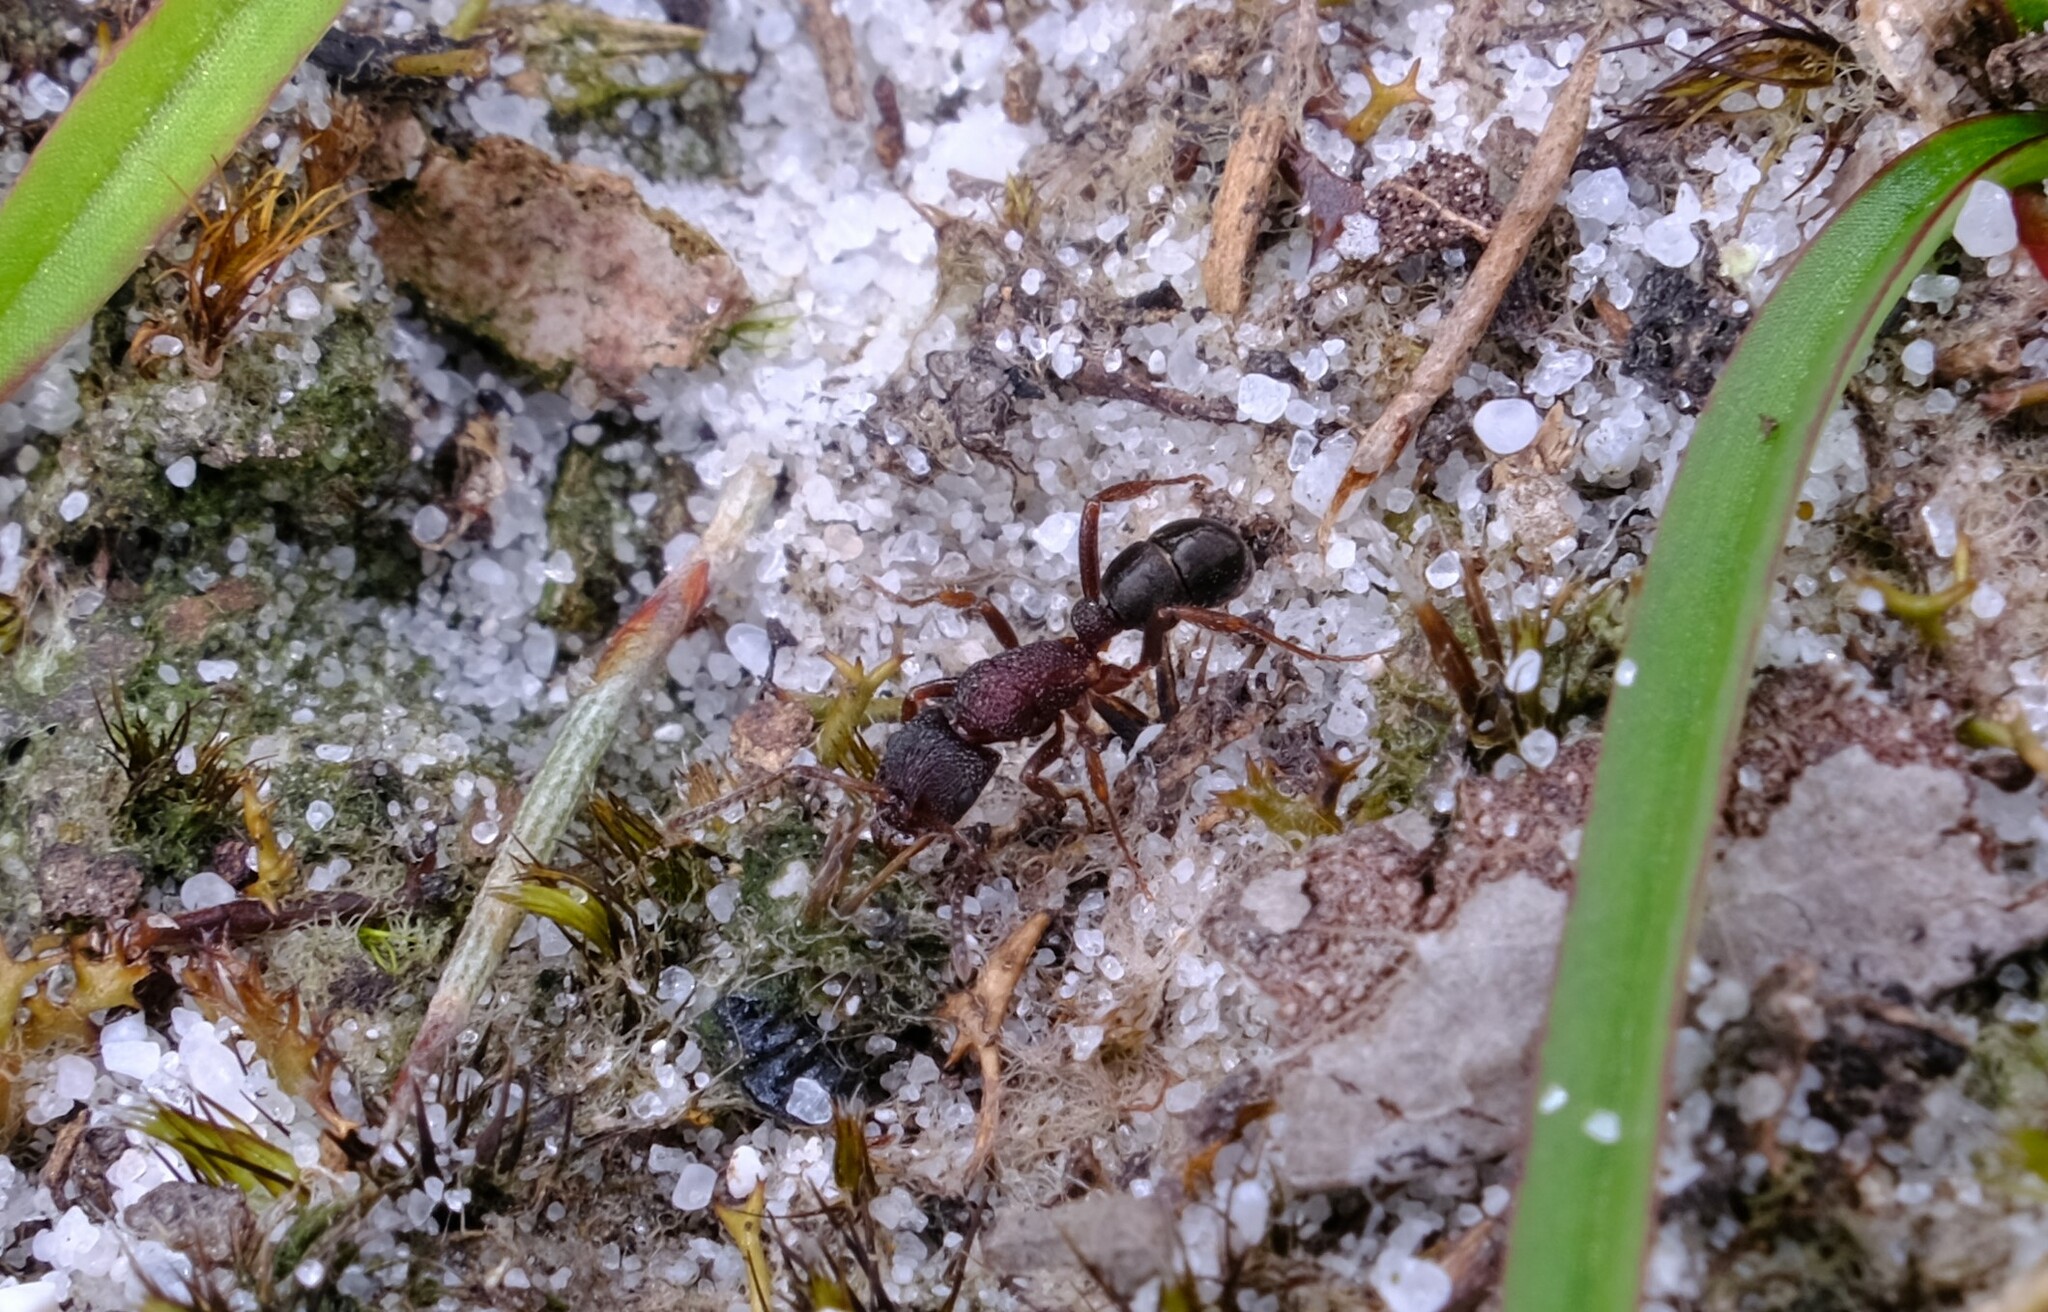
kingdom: Animalia
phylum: Arthropoda
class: Insecta
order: Hymenoptera
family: Formicidae
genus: Rhytidoponera
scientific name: Rhytidoponera tasmaniensis
